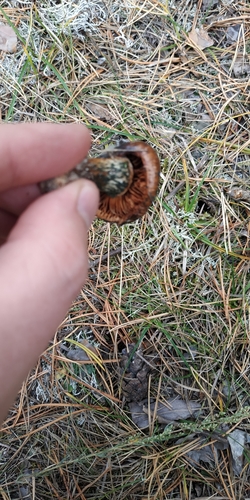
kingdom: Fungi
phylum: Basidiomycota
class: Agaricomycetes
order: Agaricales
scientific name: Agaricales
